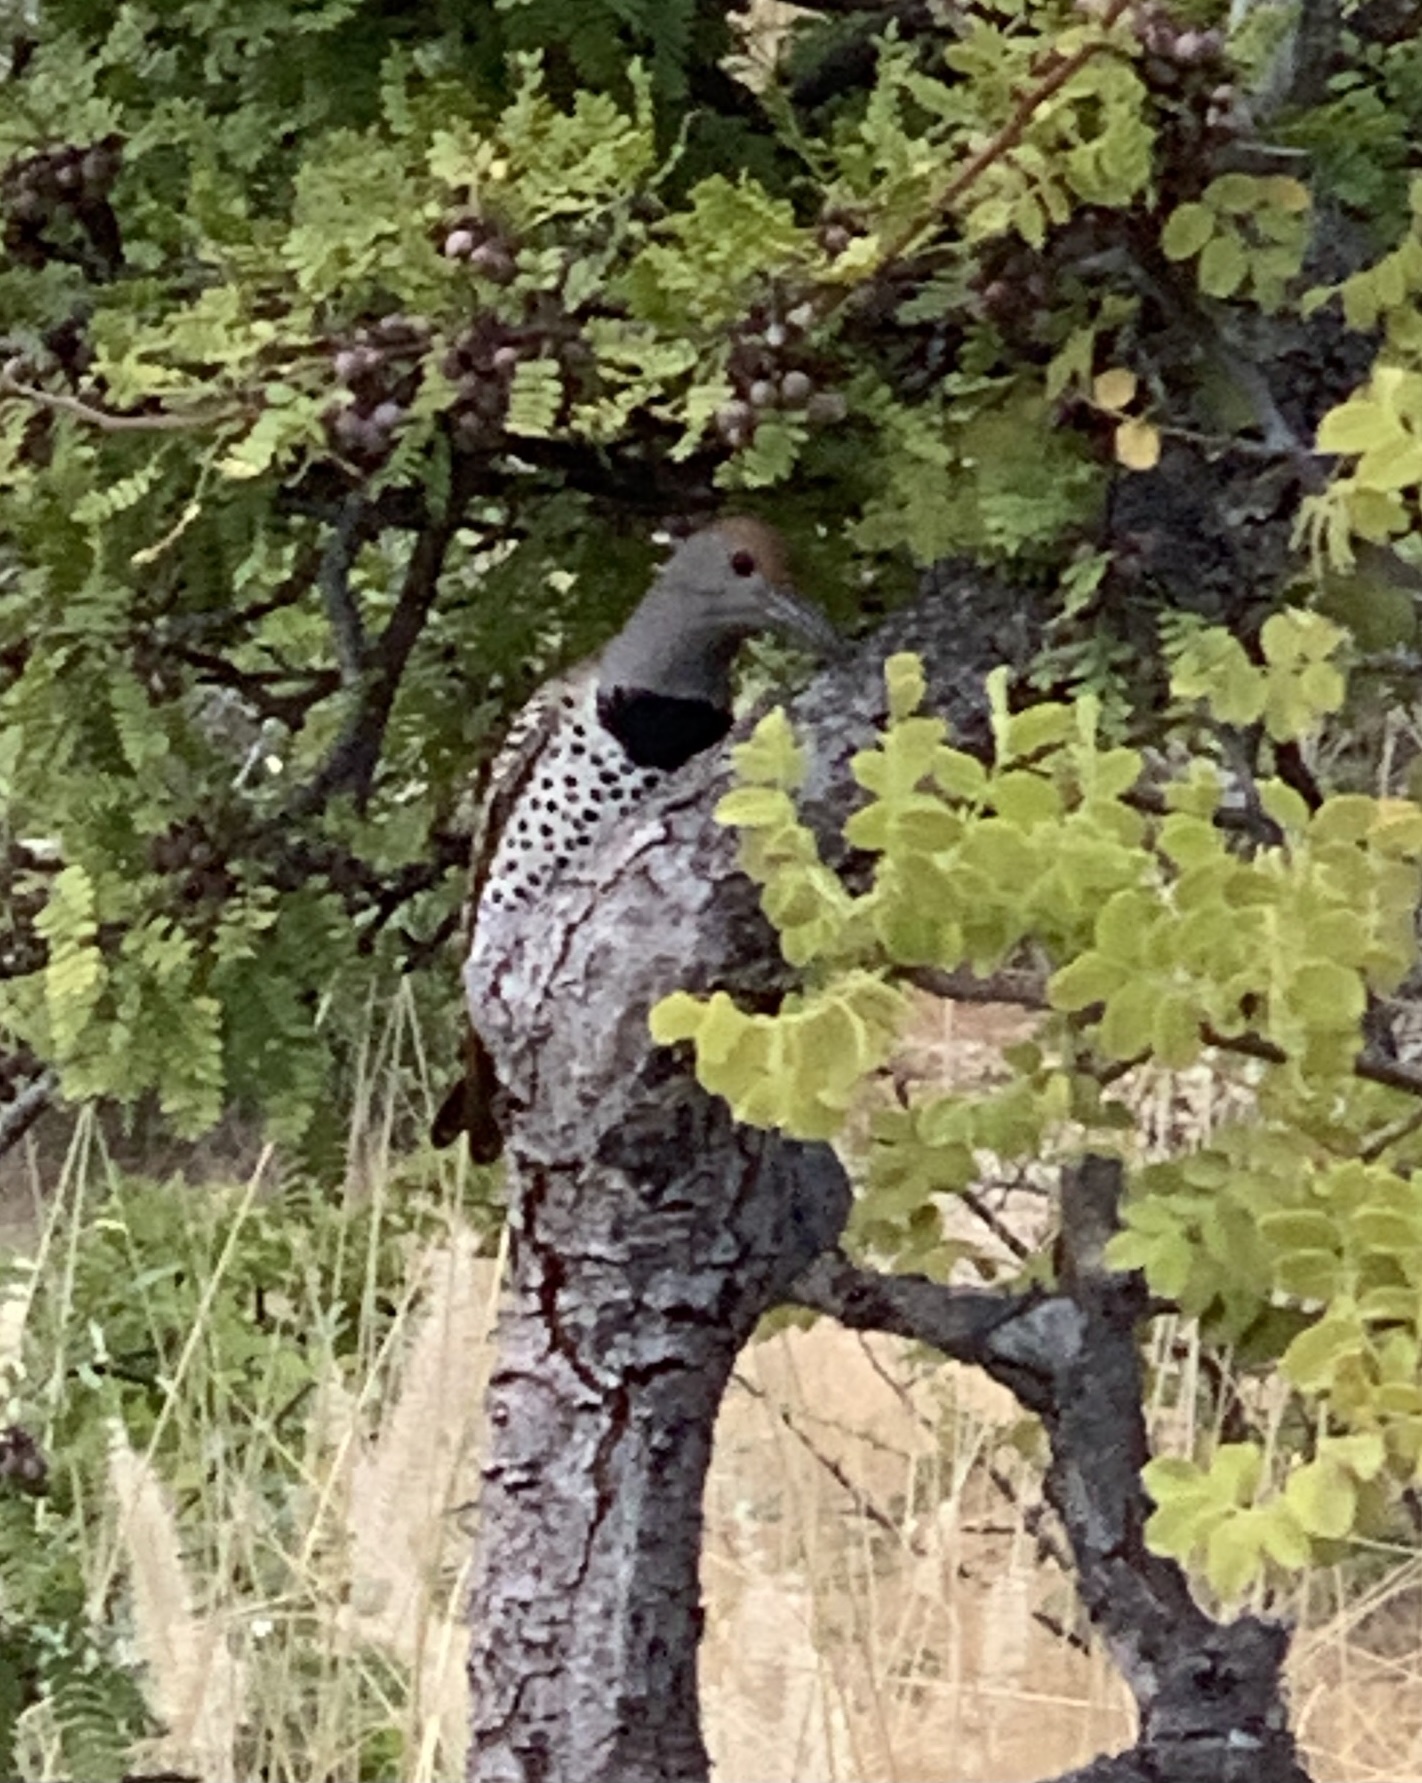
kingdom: Animalia
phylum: Chordata
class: Aves
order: Piciformes
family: Picidae
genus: Colaptes
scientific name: Colaptes chrysoides
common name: Gilded flicker
